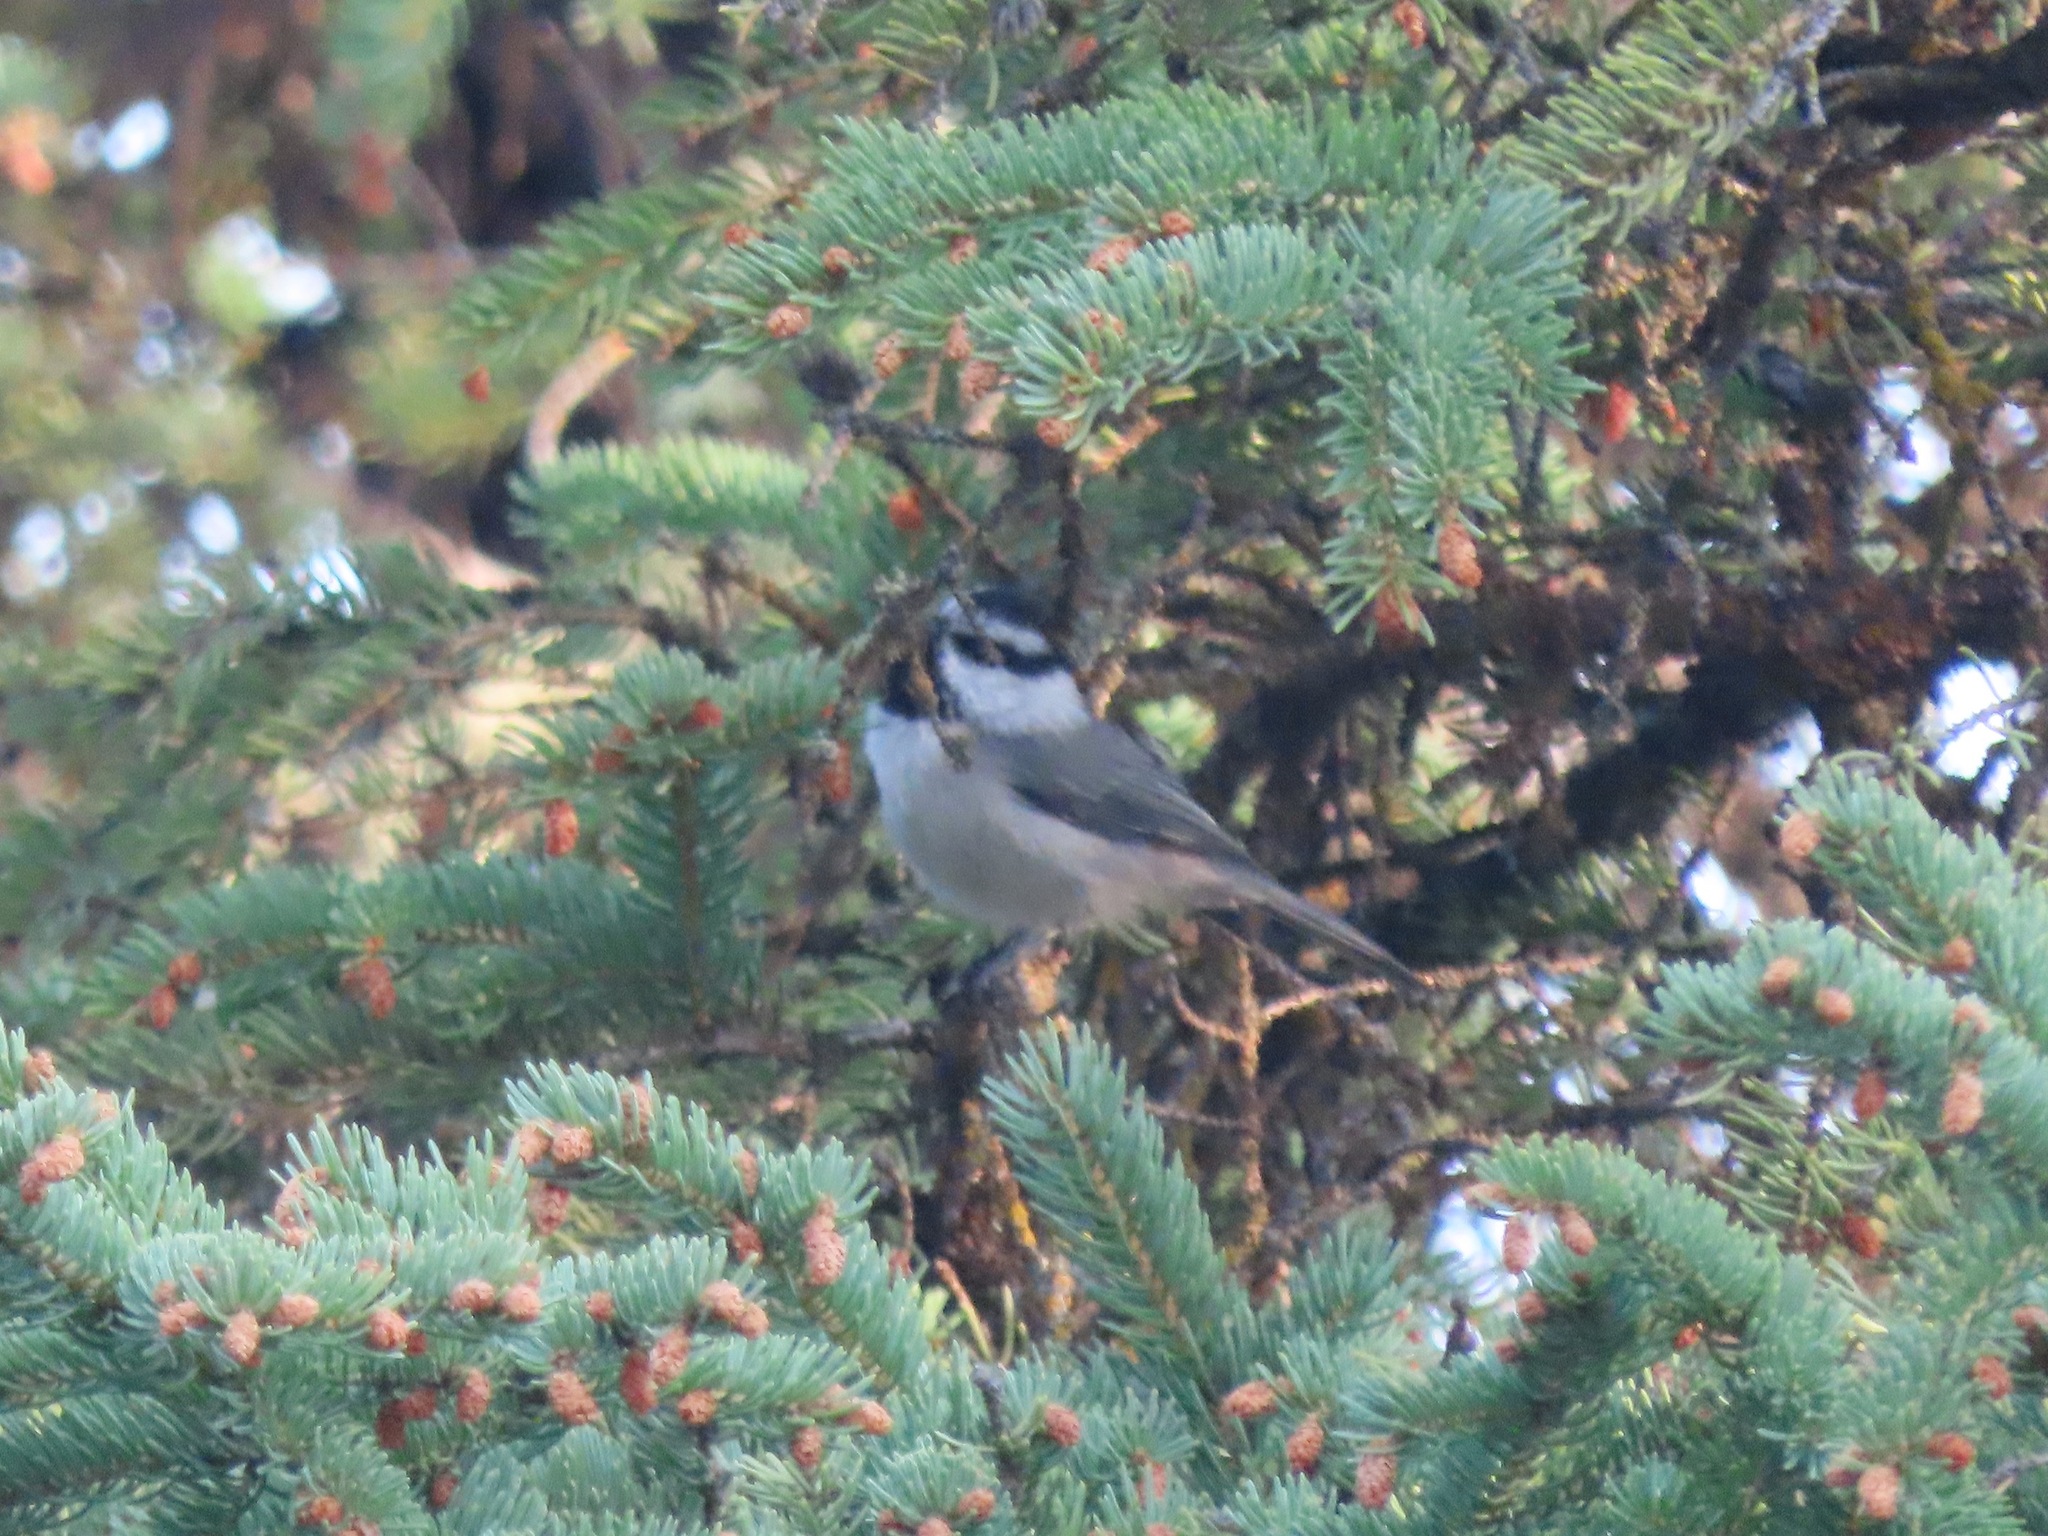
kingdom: Animalia
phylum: Chordata
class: Aves
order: Passeriformes
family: Paridae
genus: Poecile
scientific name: Poecile gambeli
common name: Mountain chickadee
